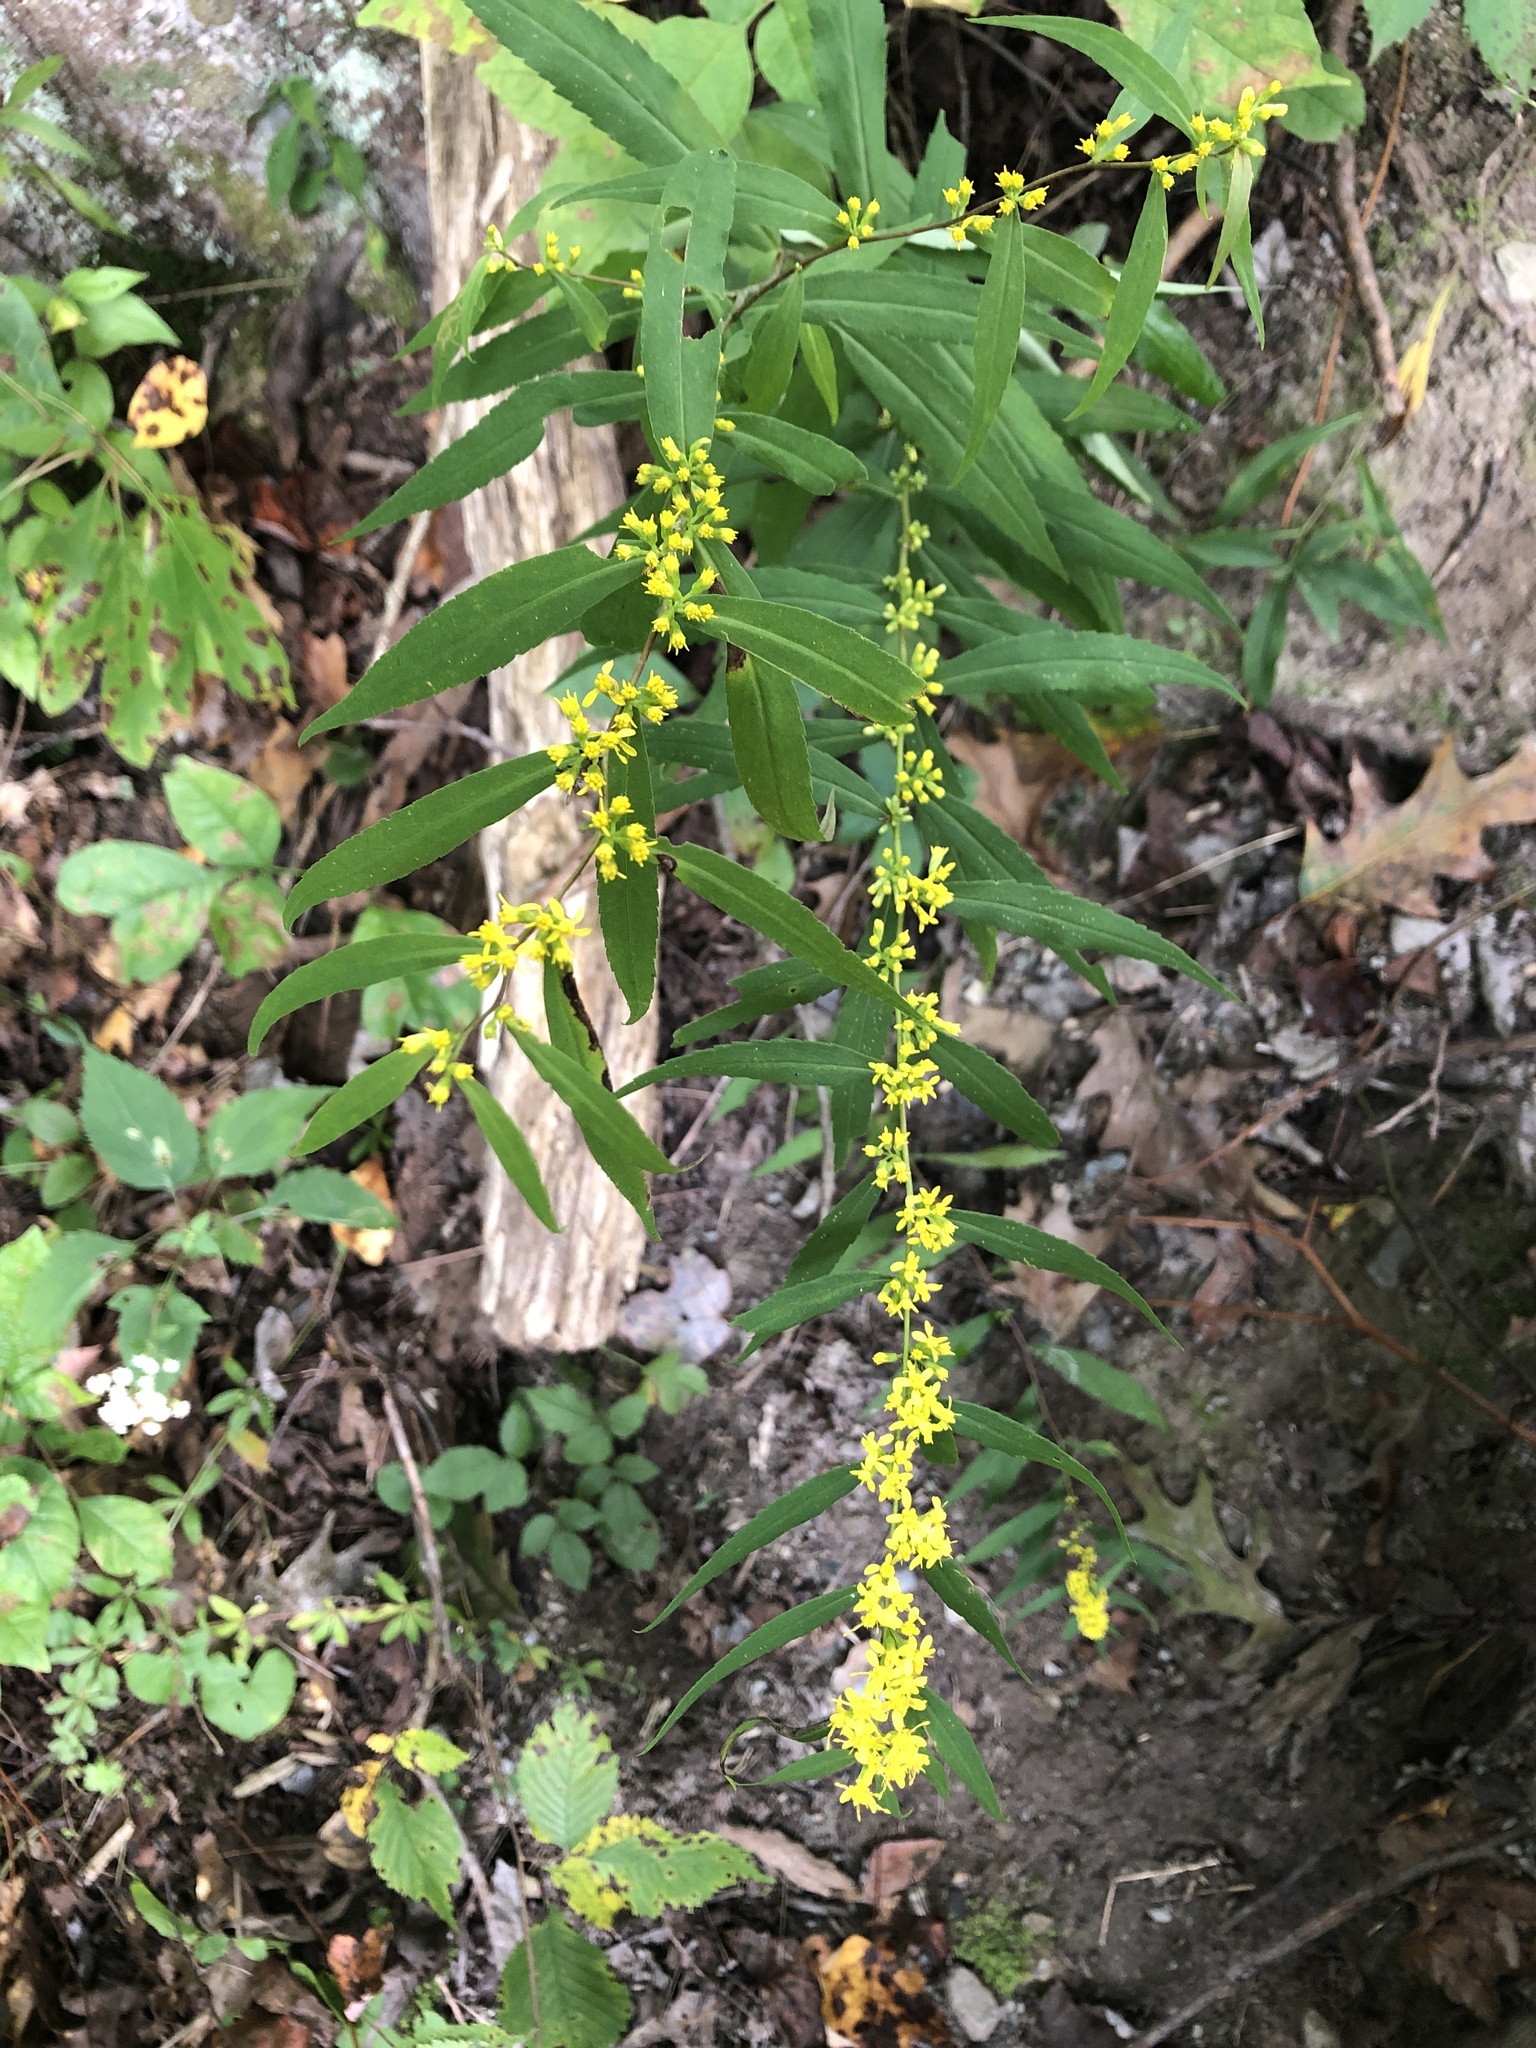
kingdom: Plantae
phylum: Tracheophyta
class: Magnoliopsida
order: Asterales
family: Asteraceae
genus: Solidago
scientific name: Solidago caesia
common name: Woodland goldenrod
